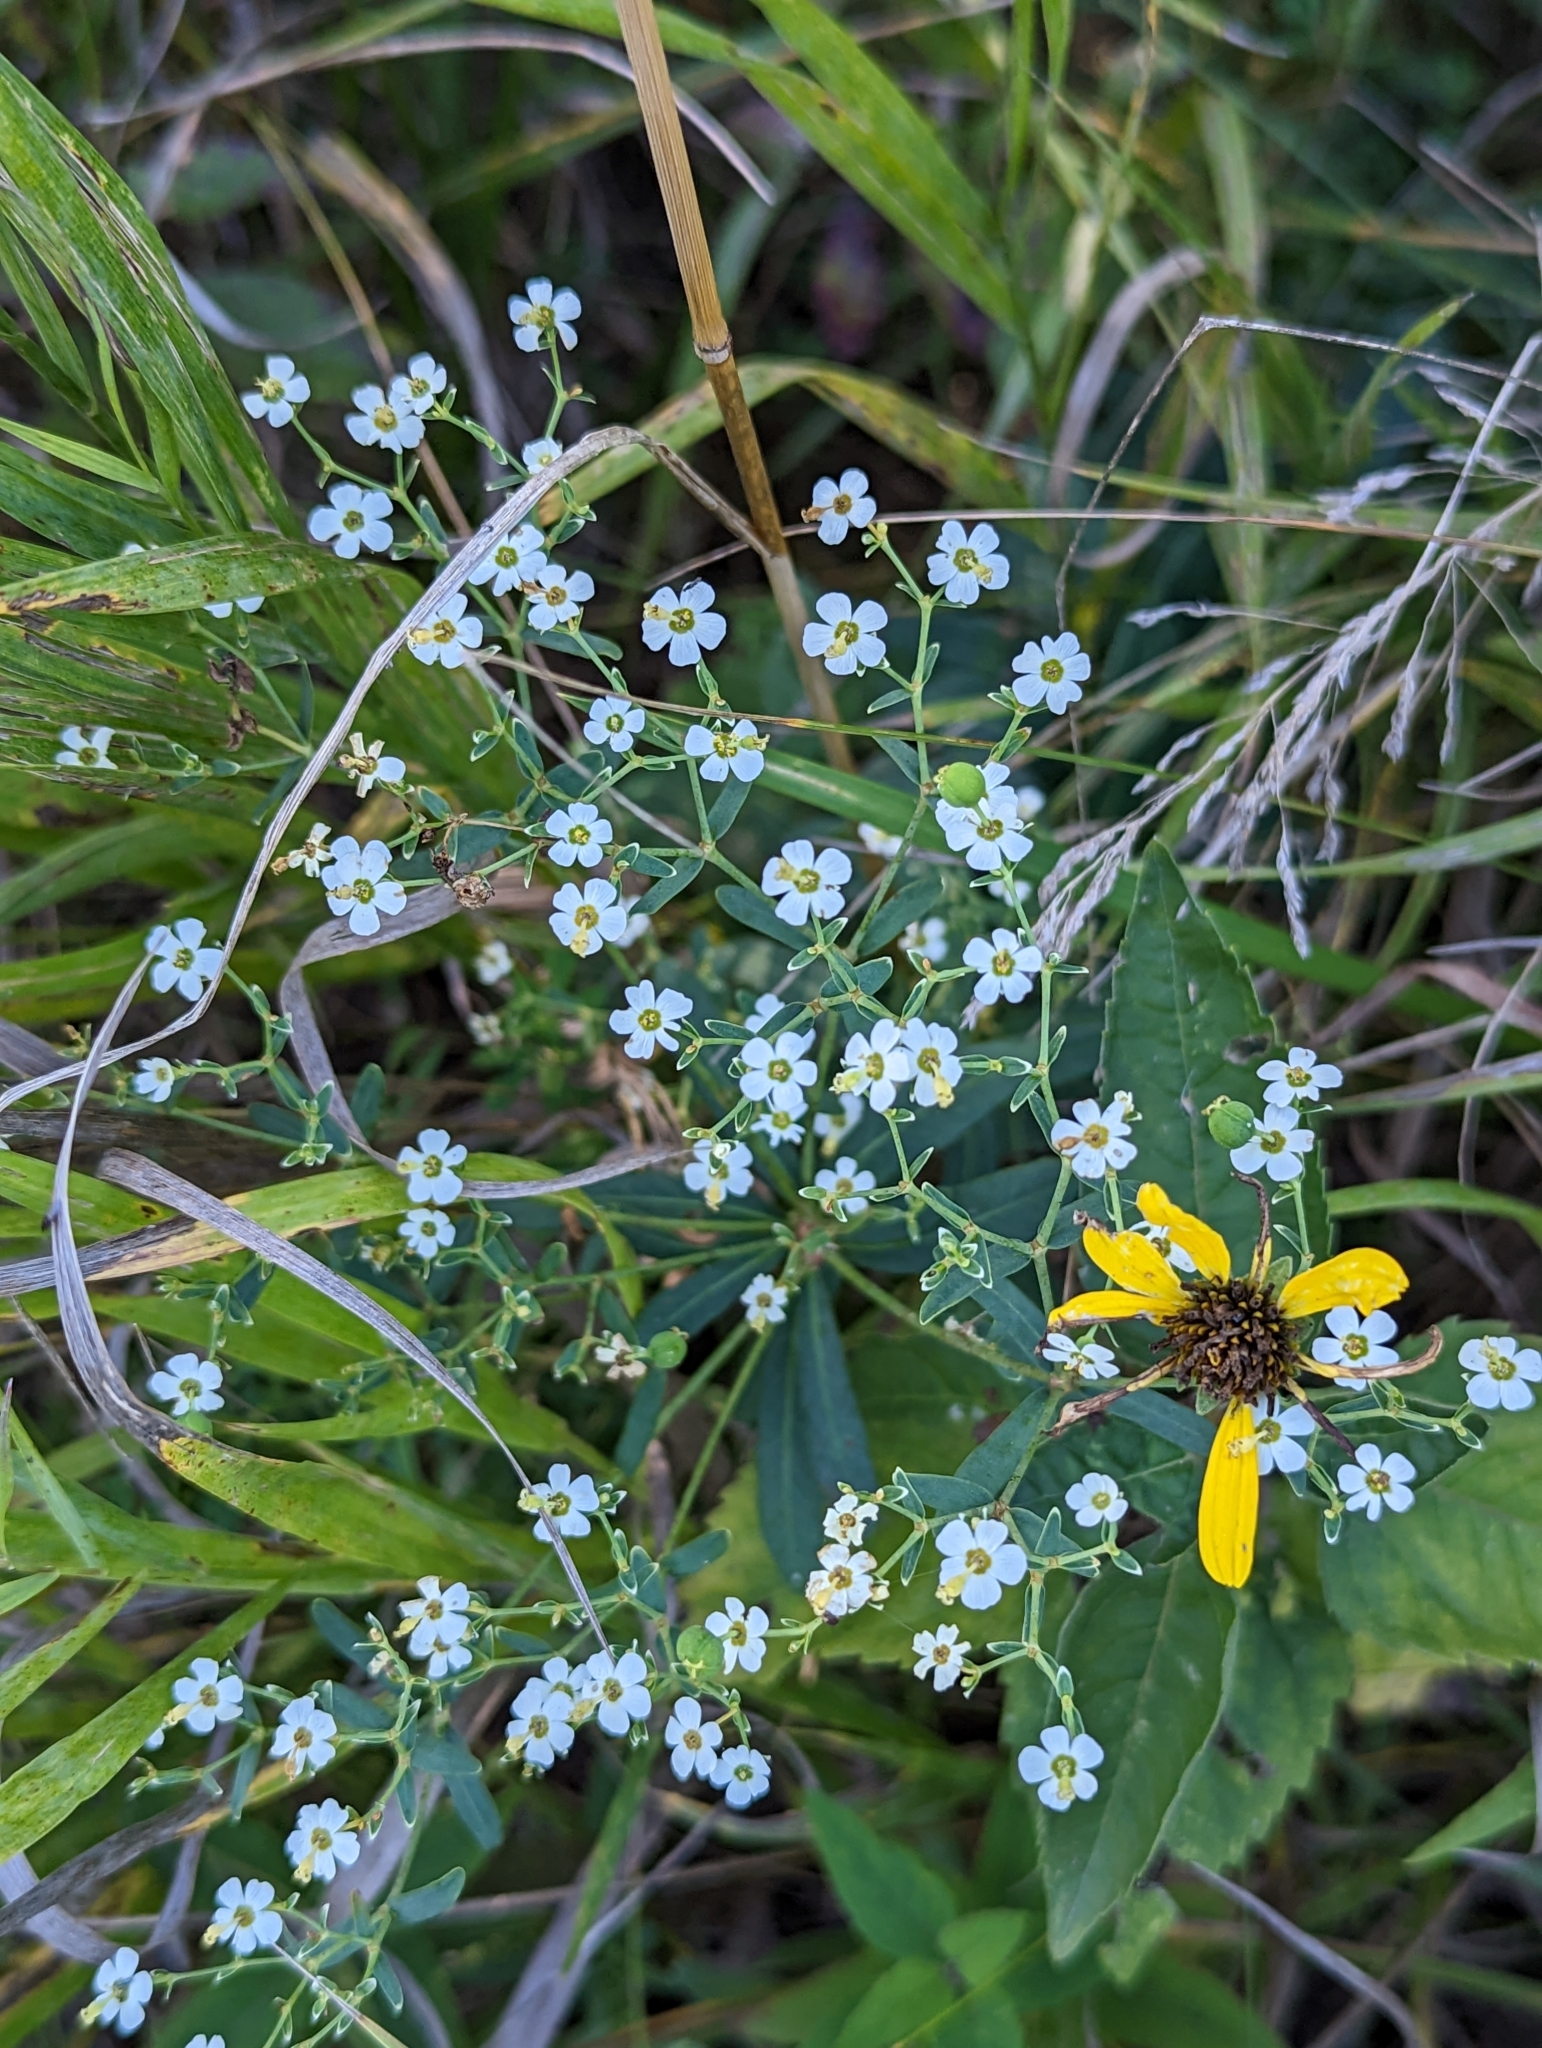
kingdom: Plantae
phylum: Tracheophyta
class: Magnoliopsida
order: Malpighiales
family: Euphorbiaceae
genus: Euphorbia
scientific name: Euphorbia corollata
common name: Flowering spurge
